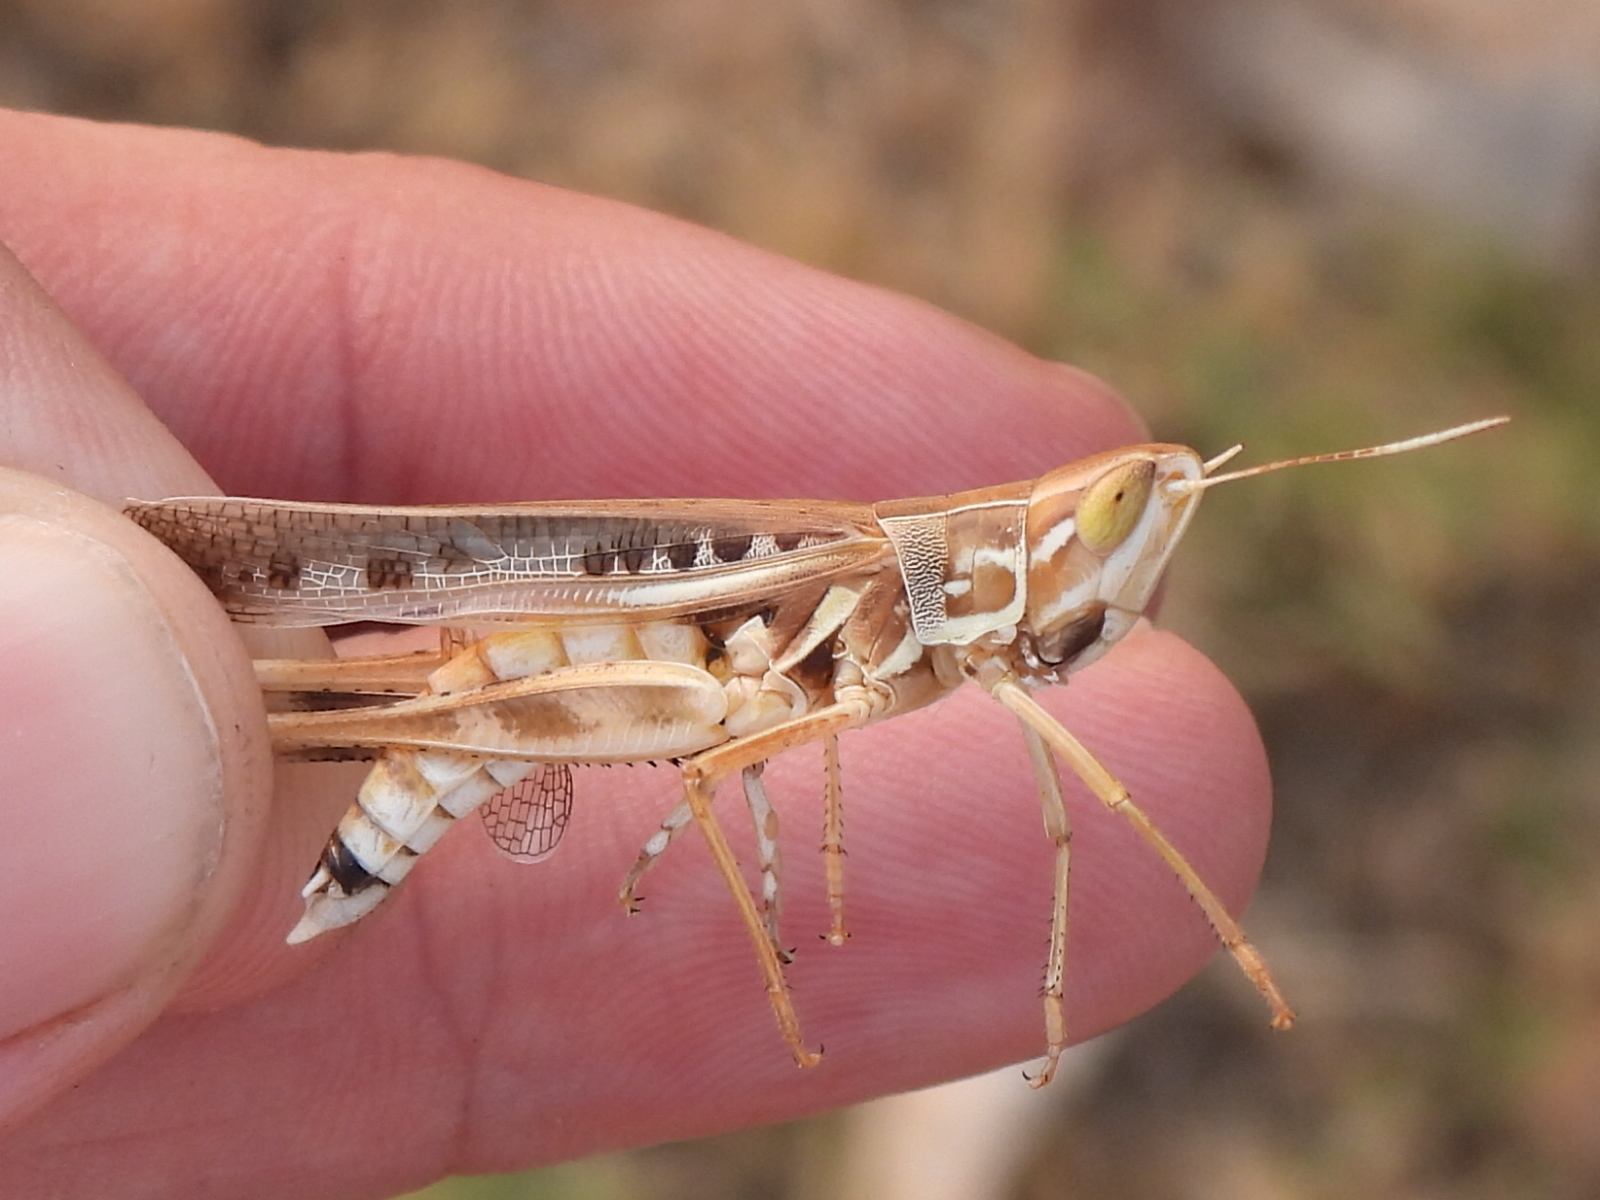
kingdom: Animalia
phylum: Arthropoda
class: Insecta
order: Orthoptera
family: Acrididae
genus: Syrbula
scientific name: Syrbula admirabilis
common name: Handsome grasshopper
